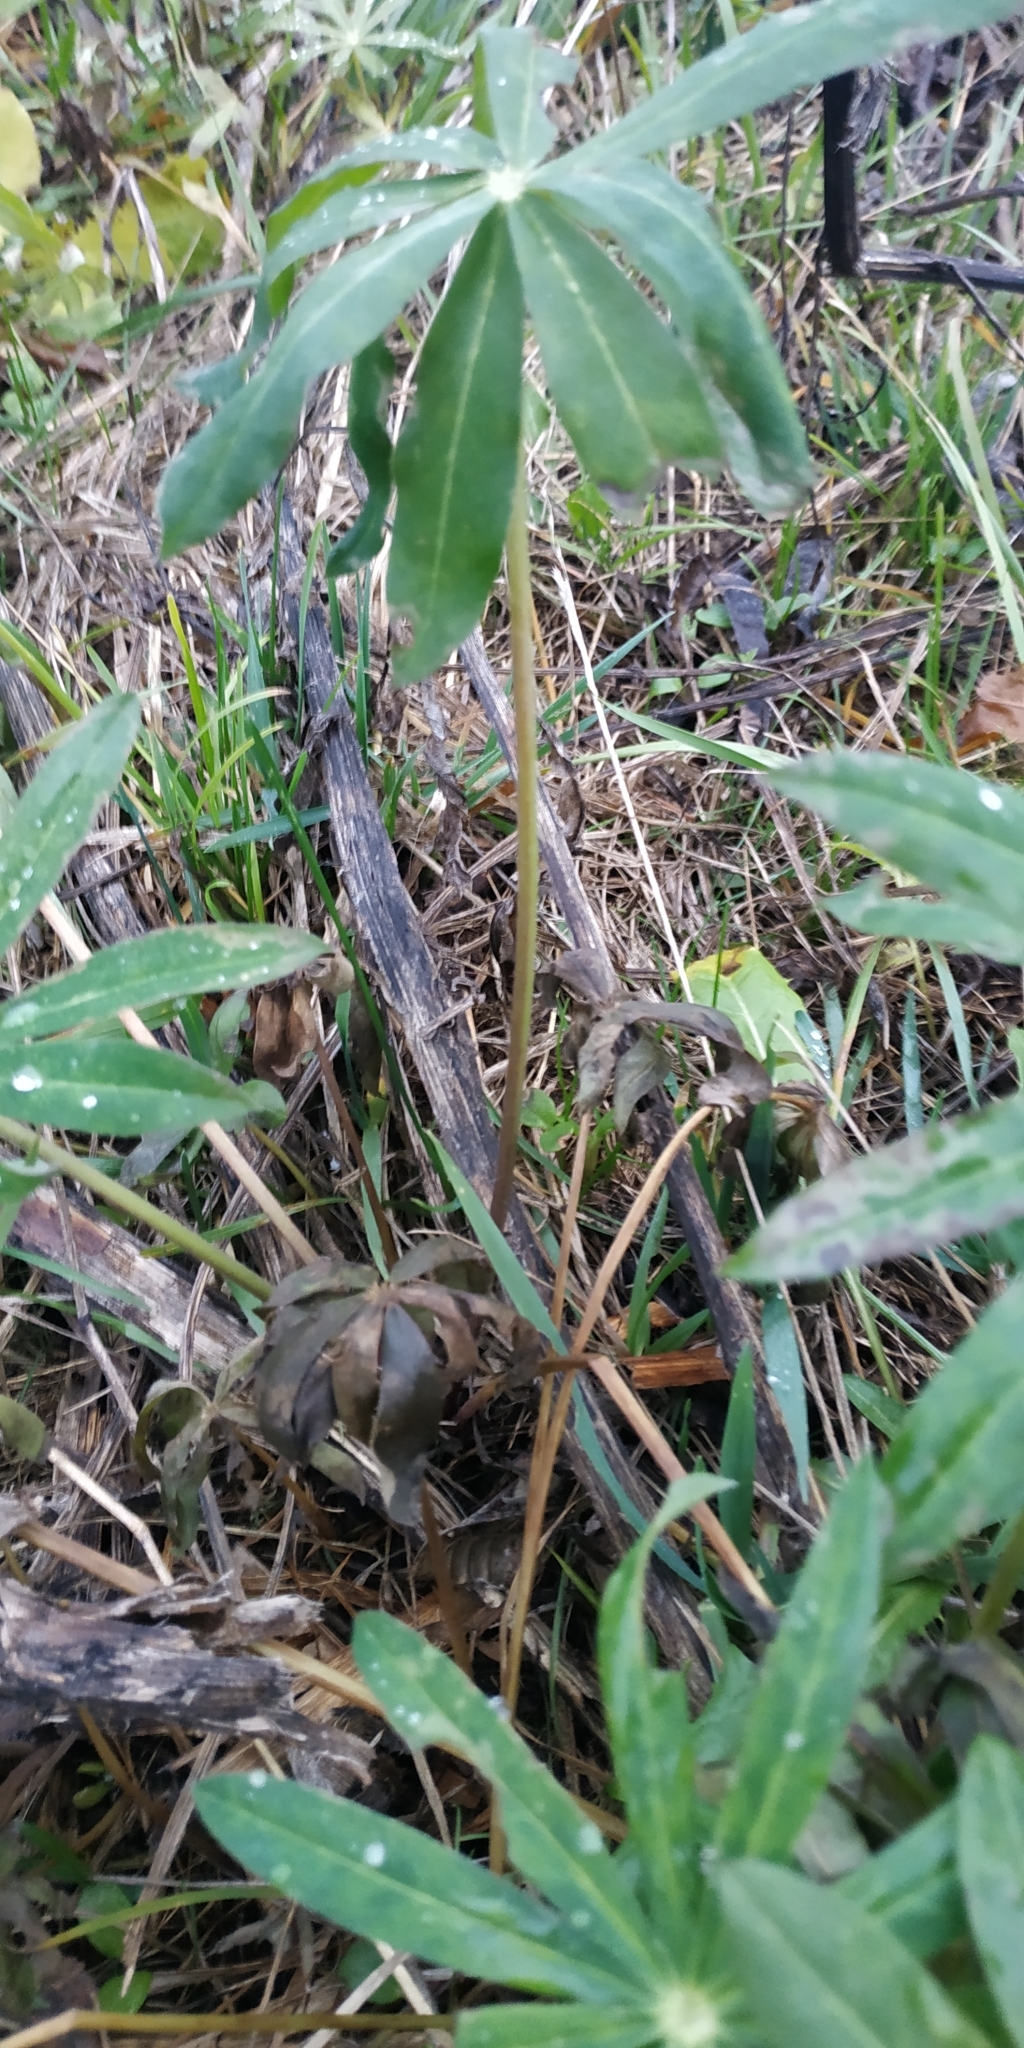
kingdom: Plantae
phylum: Tracheophyta
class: Magnoliopsida
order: Fabales
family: Fabaceae
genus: Lupinus
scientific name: Lupinus polyphyllus
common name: Garden lupin
